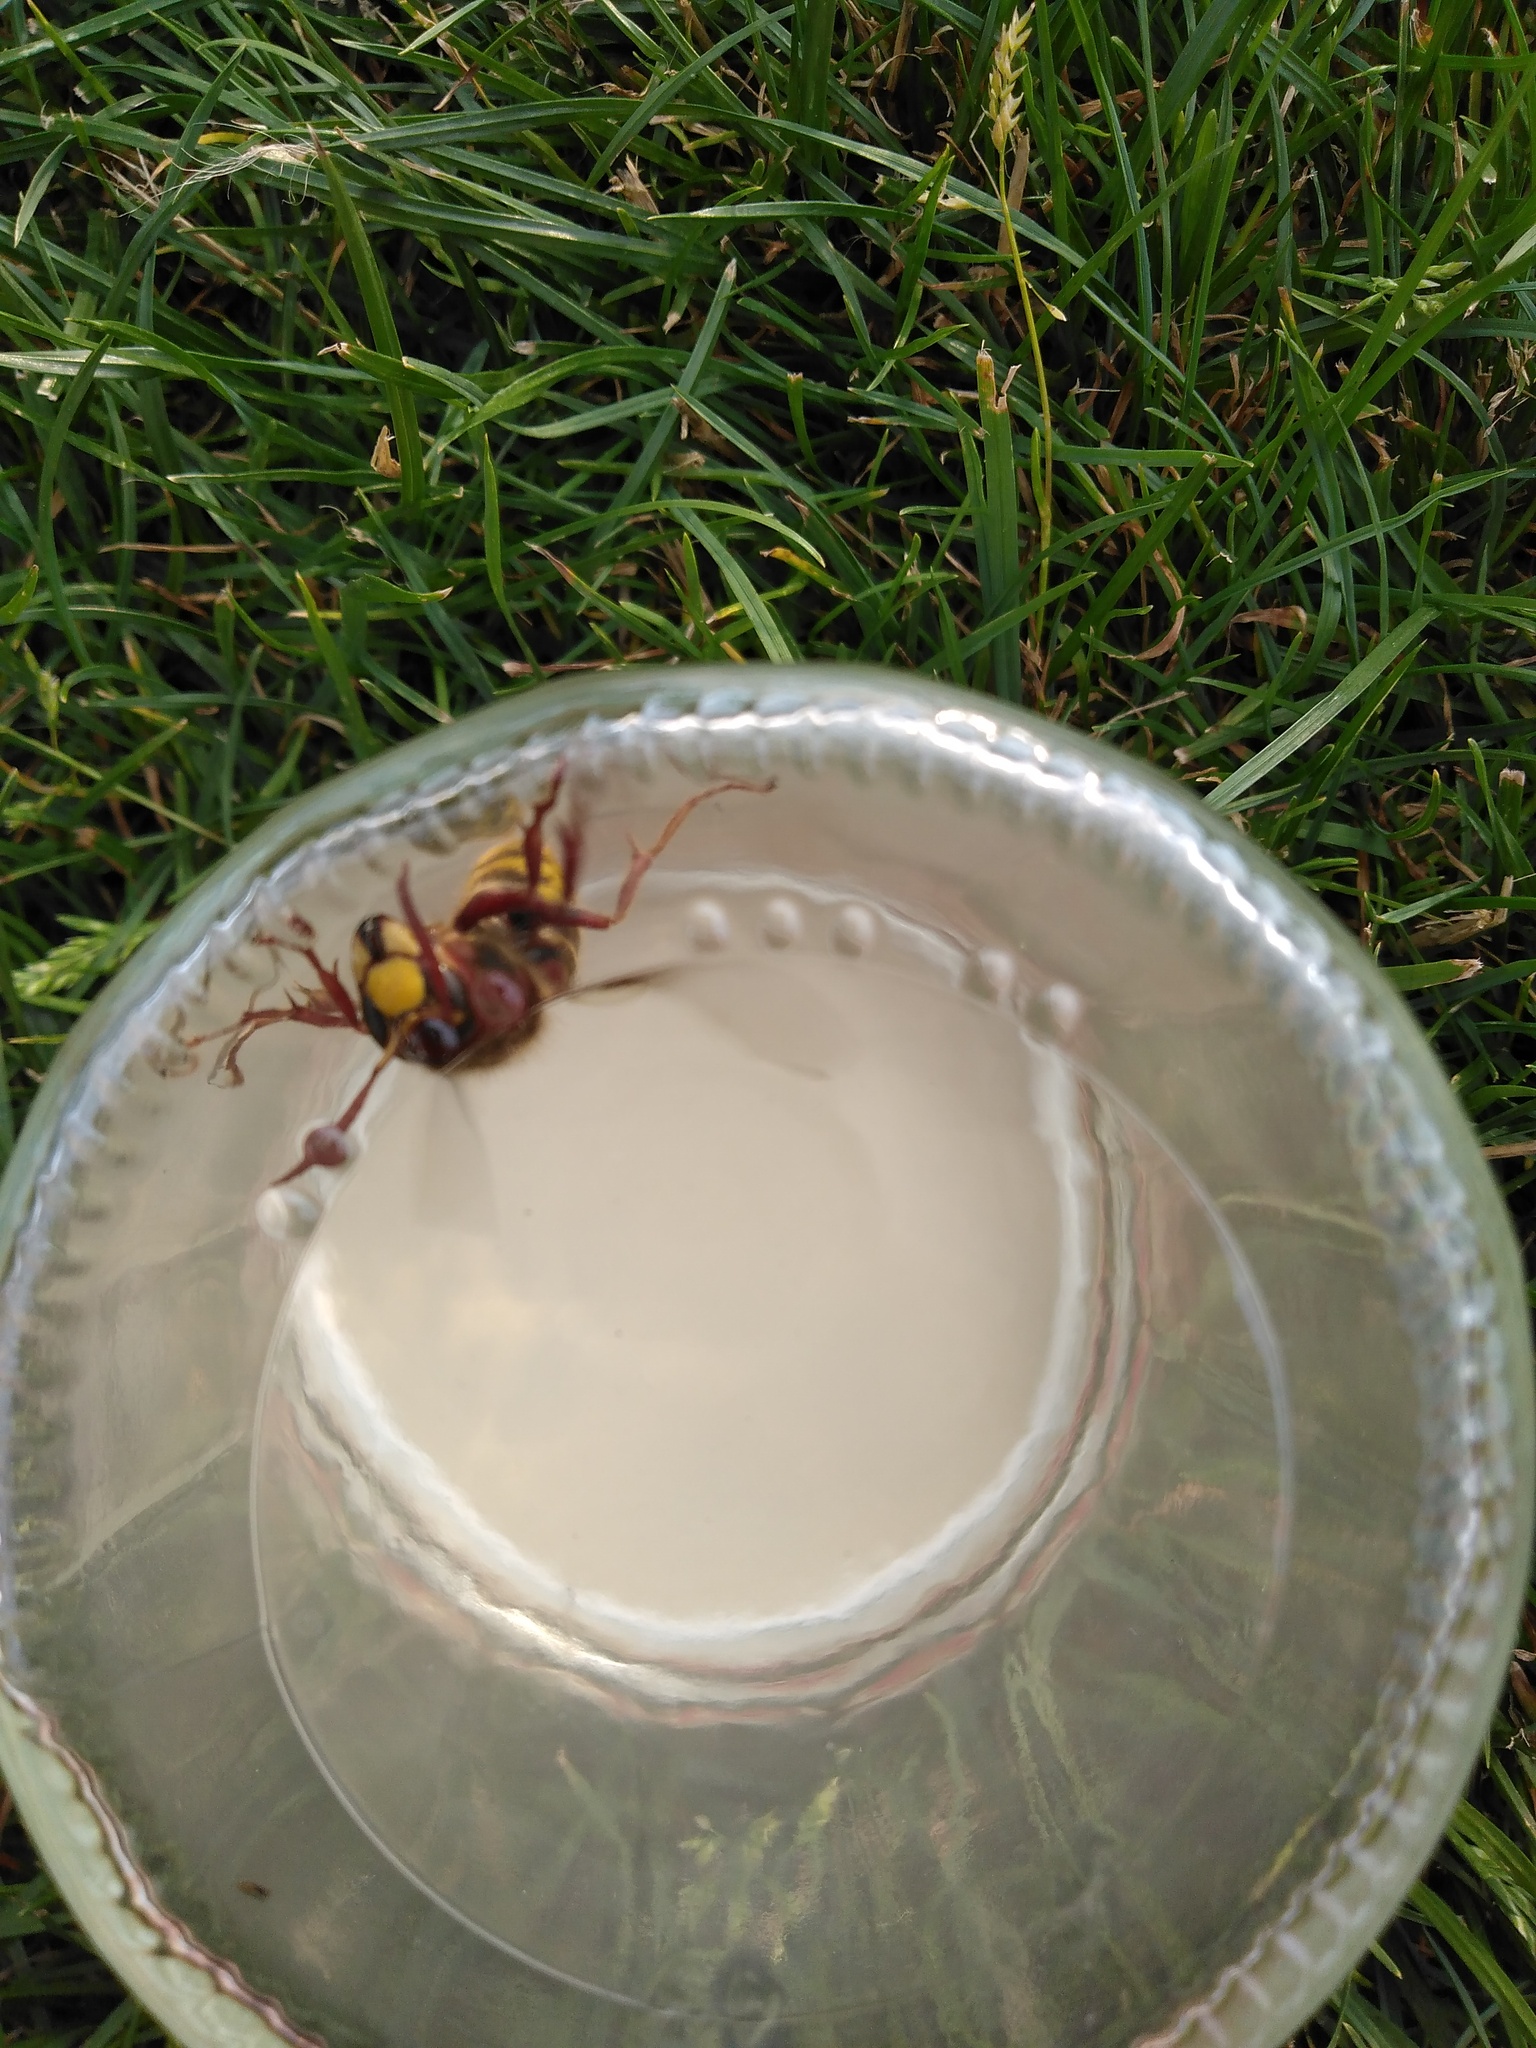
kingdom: Animalia
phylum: Arthropoda
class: Insecta
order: Hymenoptera
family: Vespidae
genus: Vespa
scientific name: Vespa crabro
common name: Hornet
